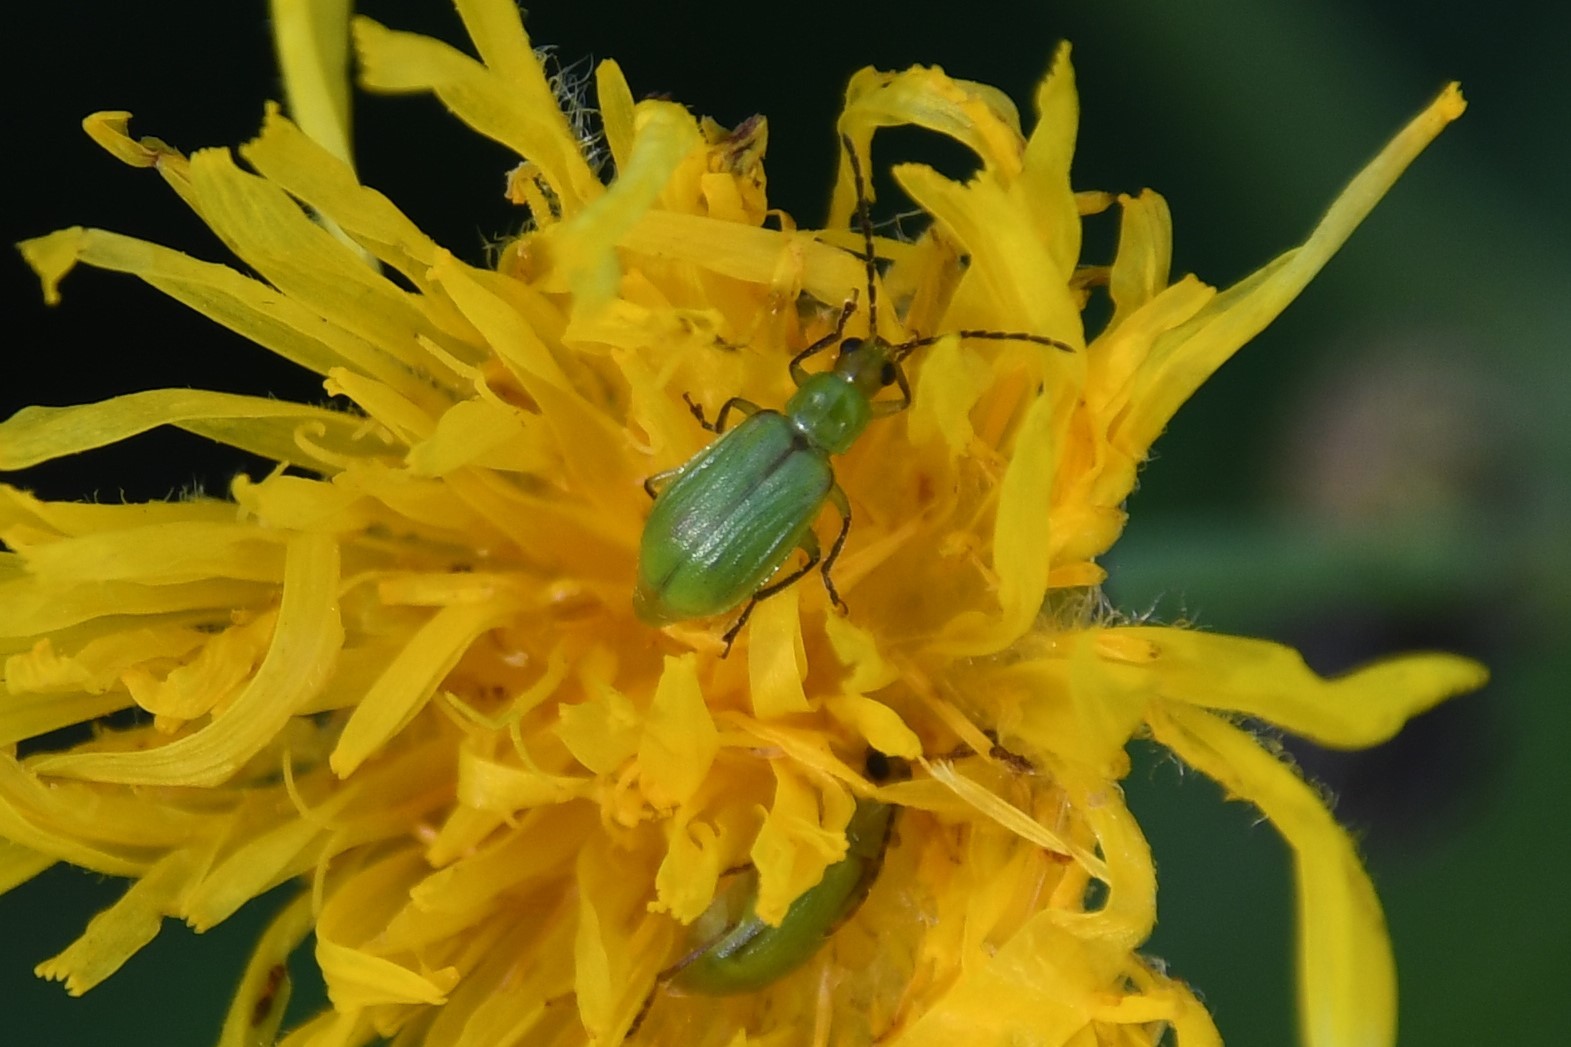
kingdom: Animalia
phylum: Arthropoda
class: Insecta
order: Coleoptera
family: Chrysomelidae
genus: Diabrotica
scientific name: Diabrotica barberi
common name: Northern corn rootworm
